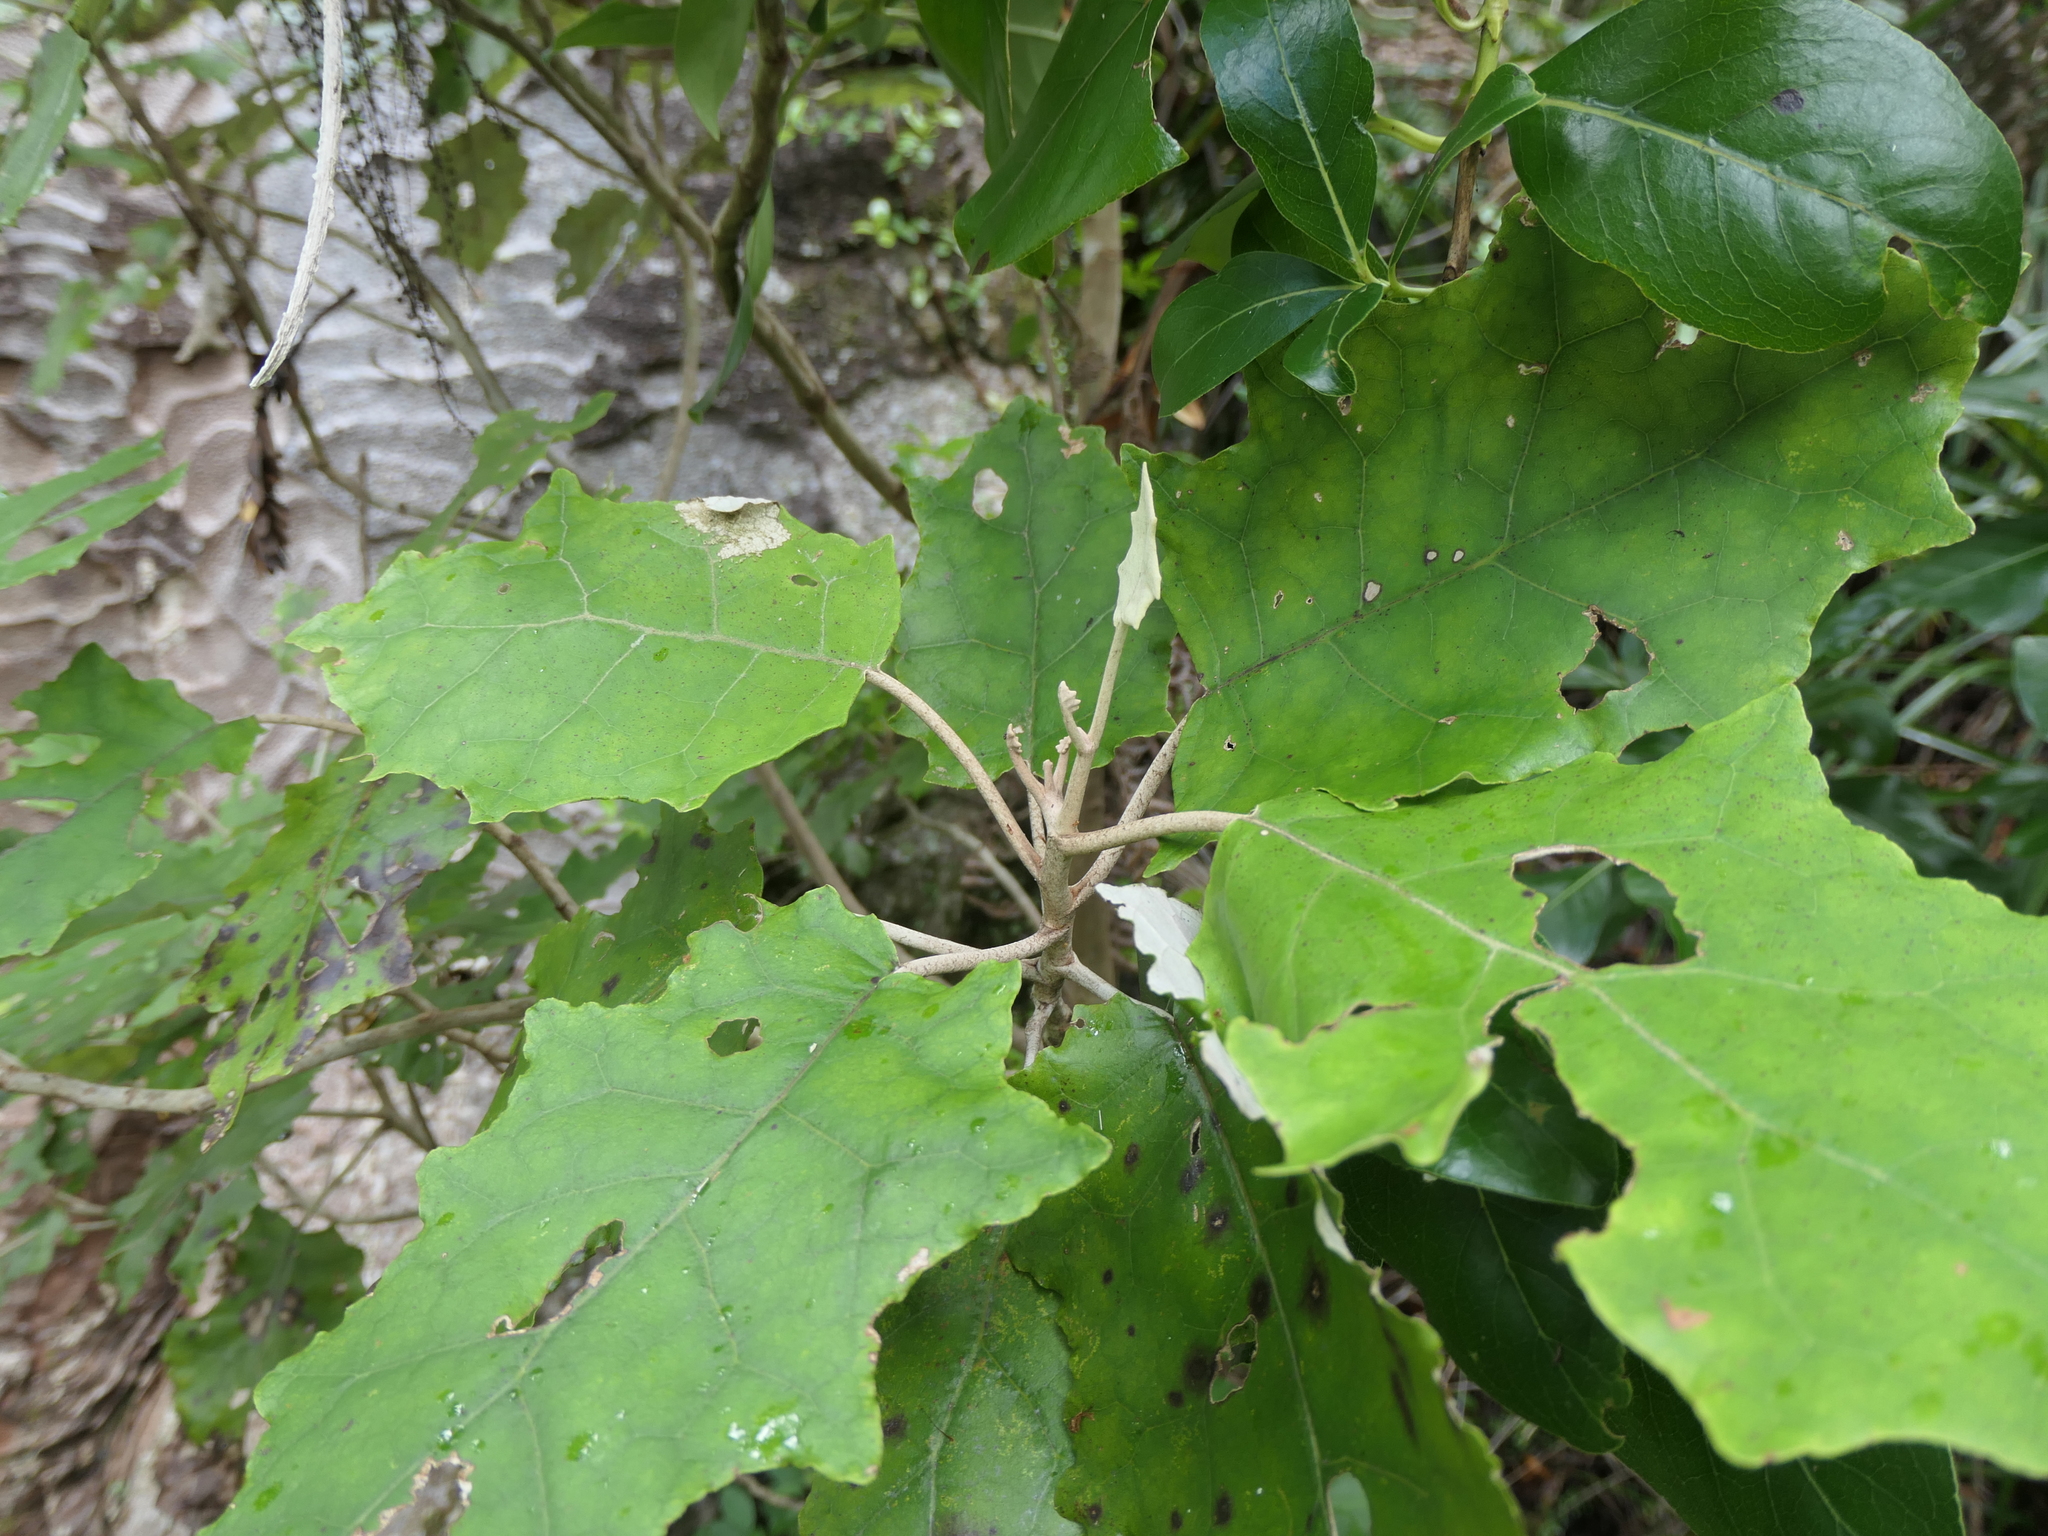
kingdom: Plantae
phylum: Tracheophyta
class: Magnoliopsida
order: Asterales
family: Asteraceae
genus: Brachyglottis
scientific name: Brachyglottis repanda
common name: Hedge ragwort
